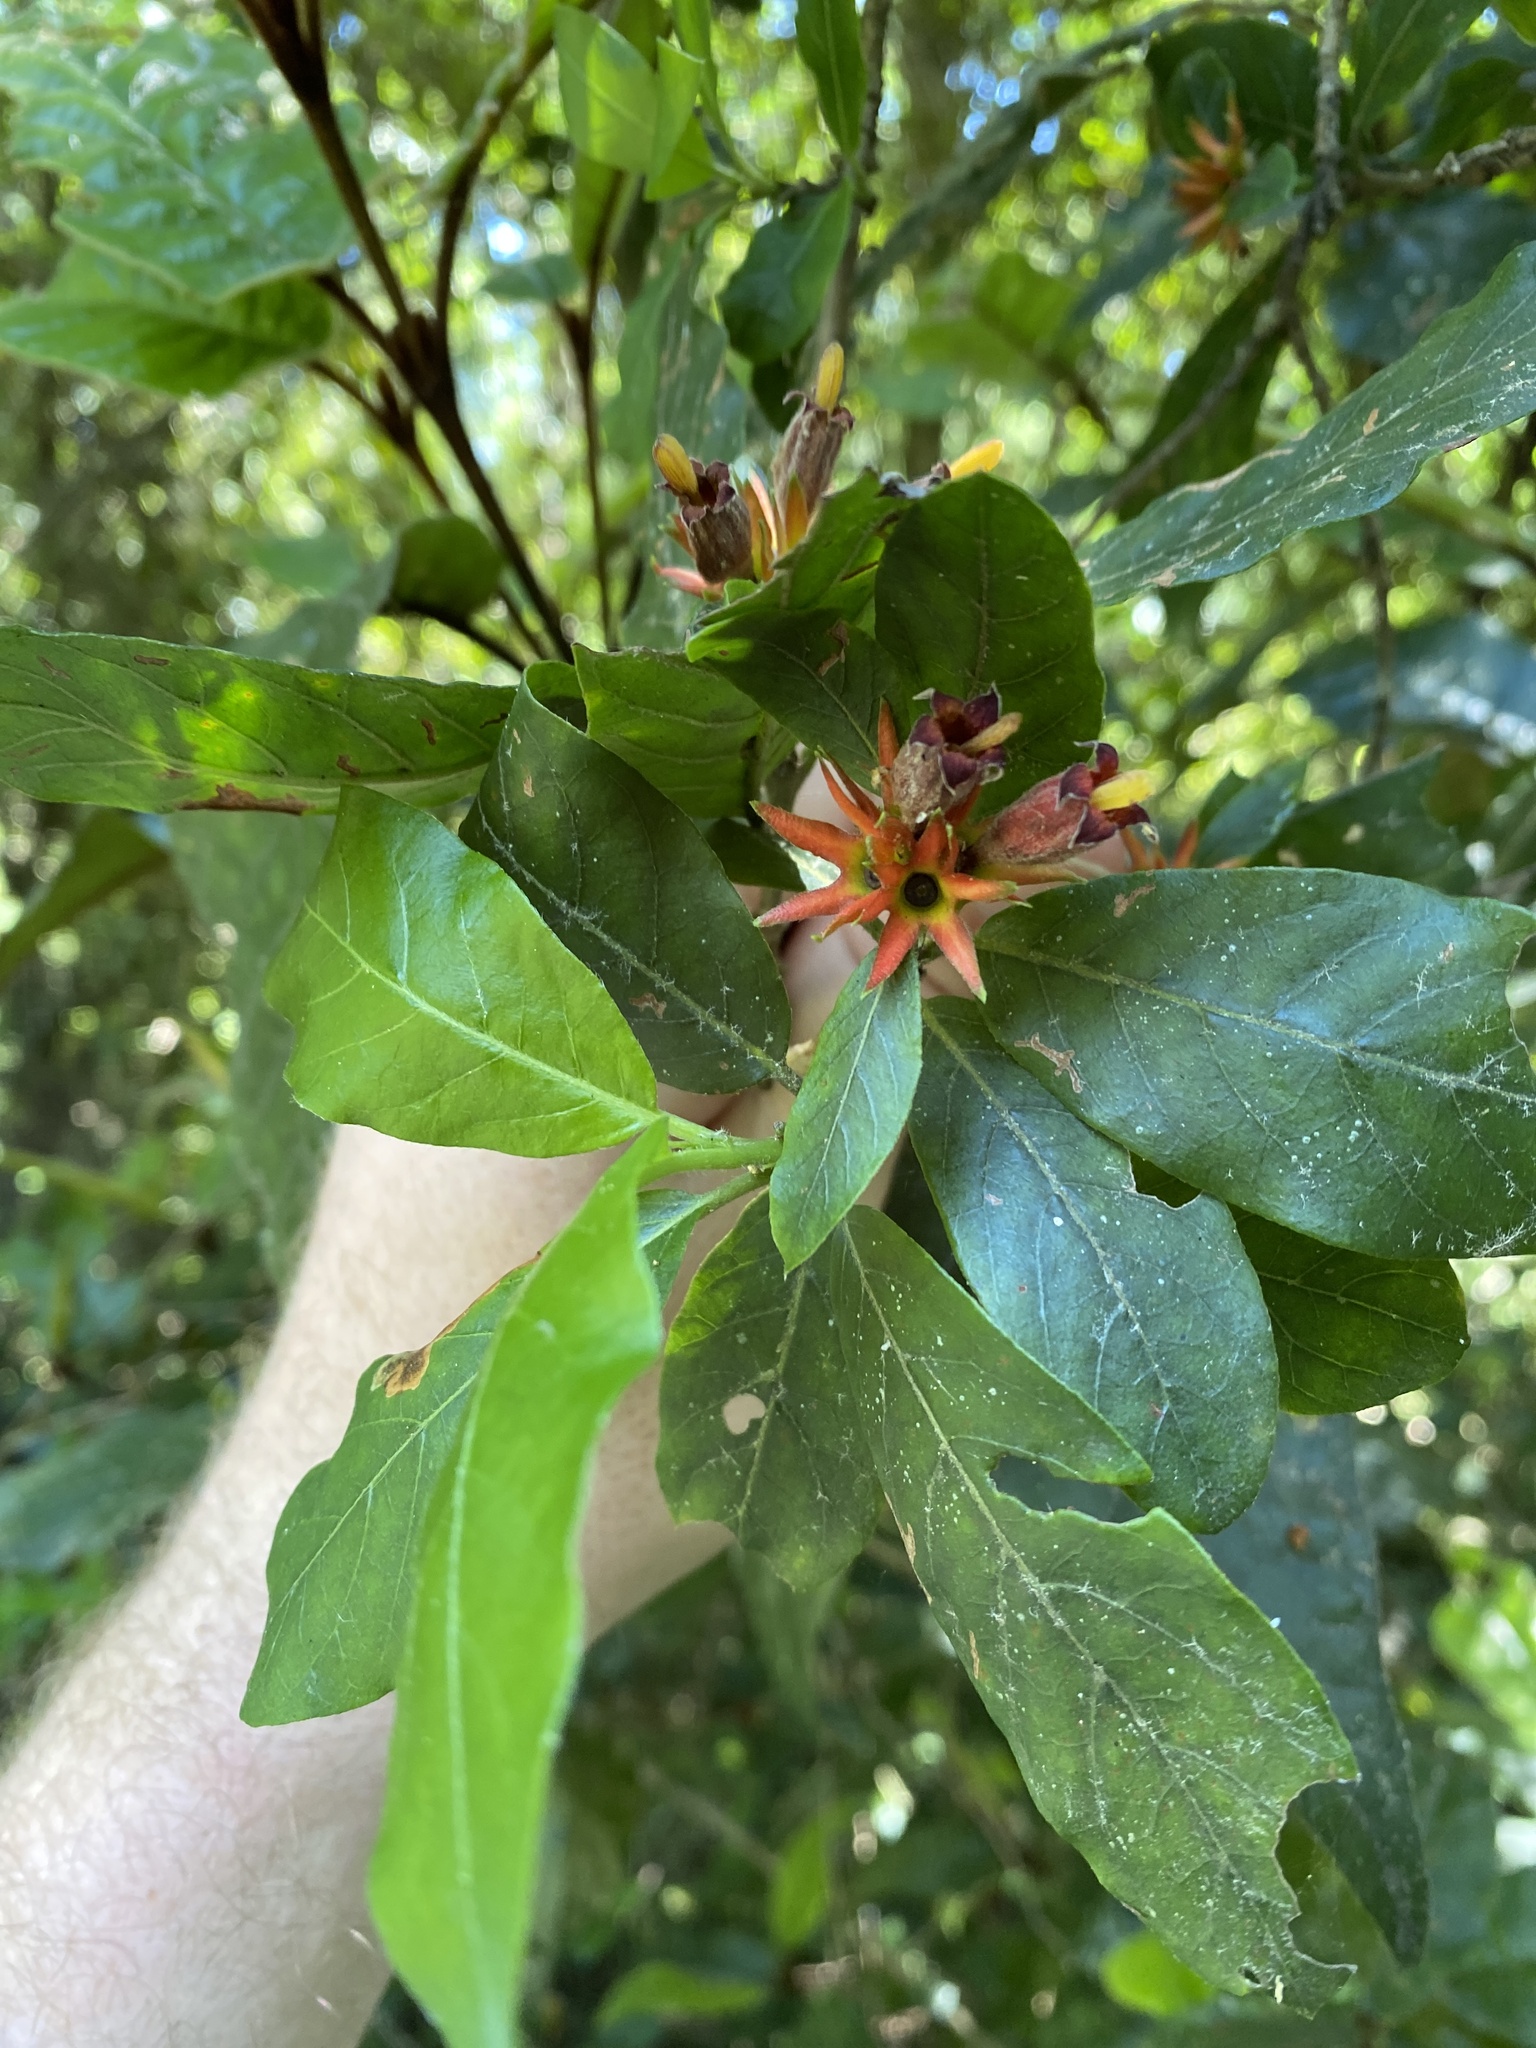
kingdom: Plantae
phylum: Tracheophyta
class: Magnoliopsida
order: Gentianales
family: Rubiaceae
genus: Burchellia
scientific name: Burchellia bubalina
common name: Wild pomegranate
